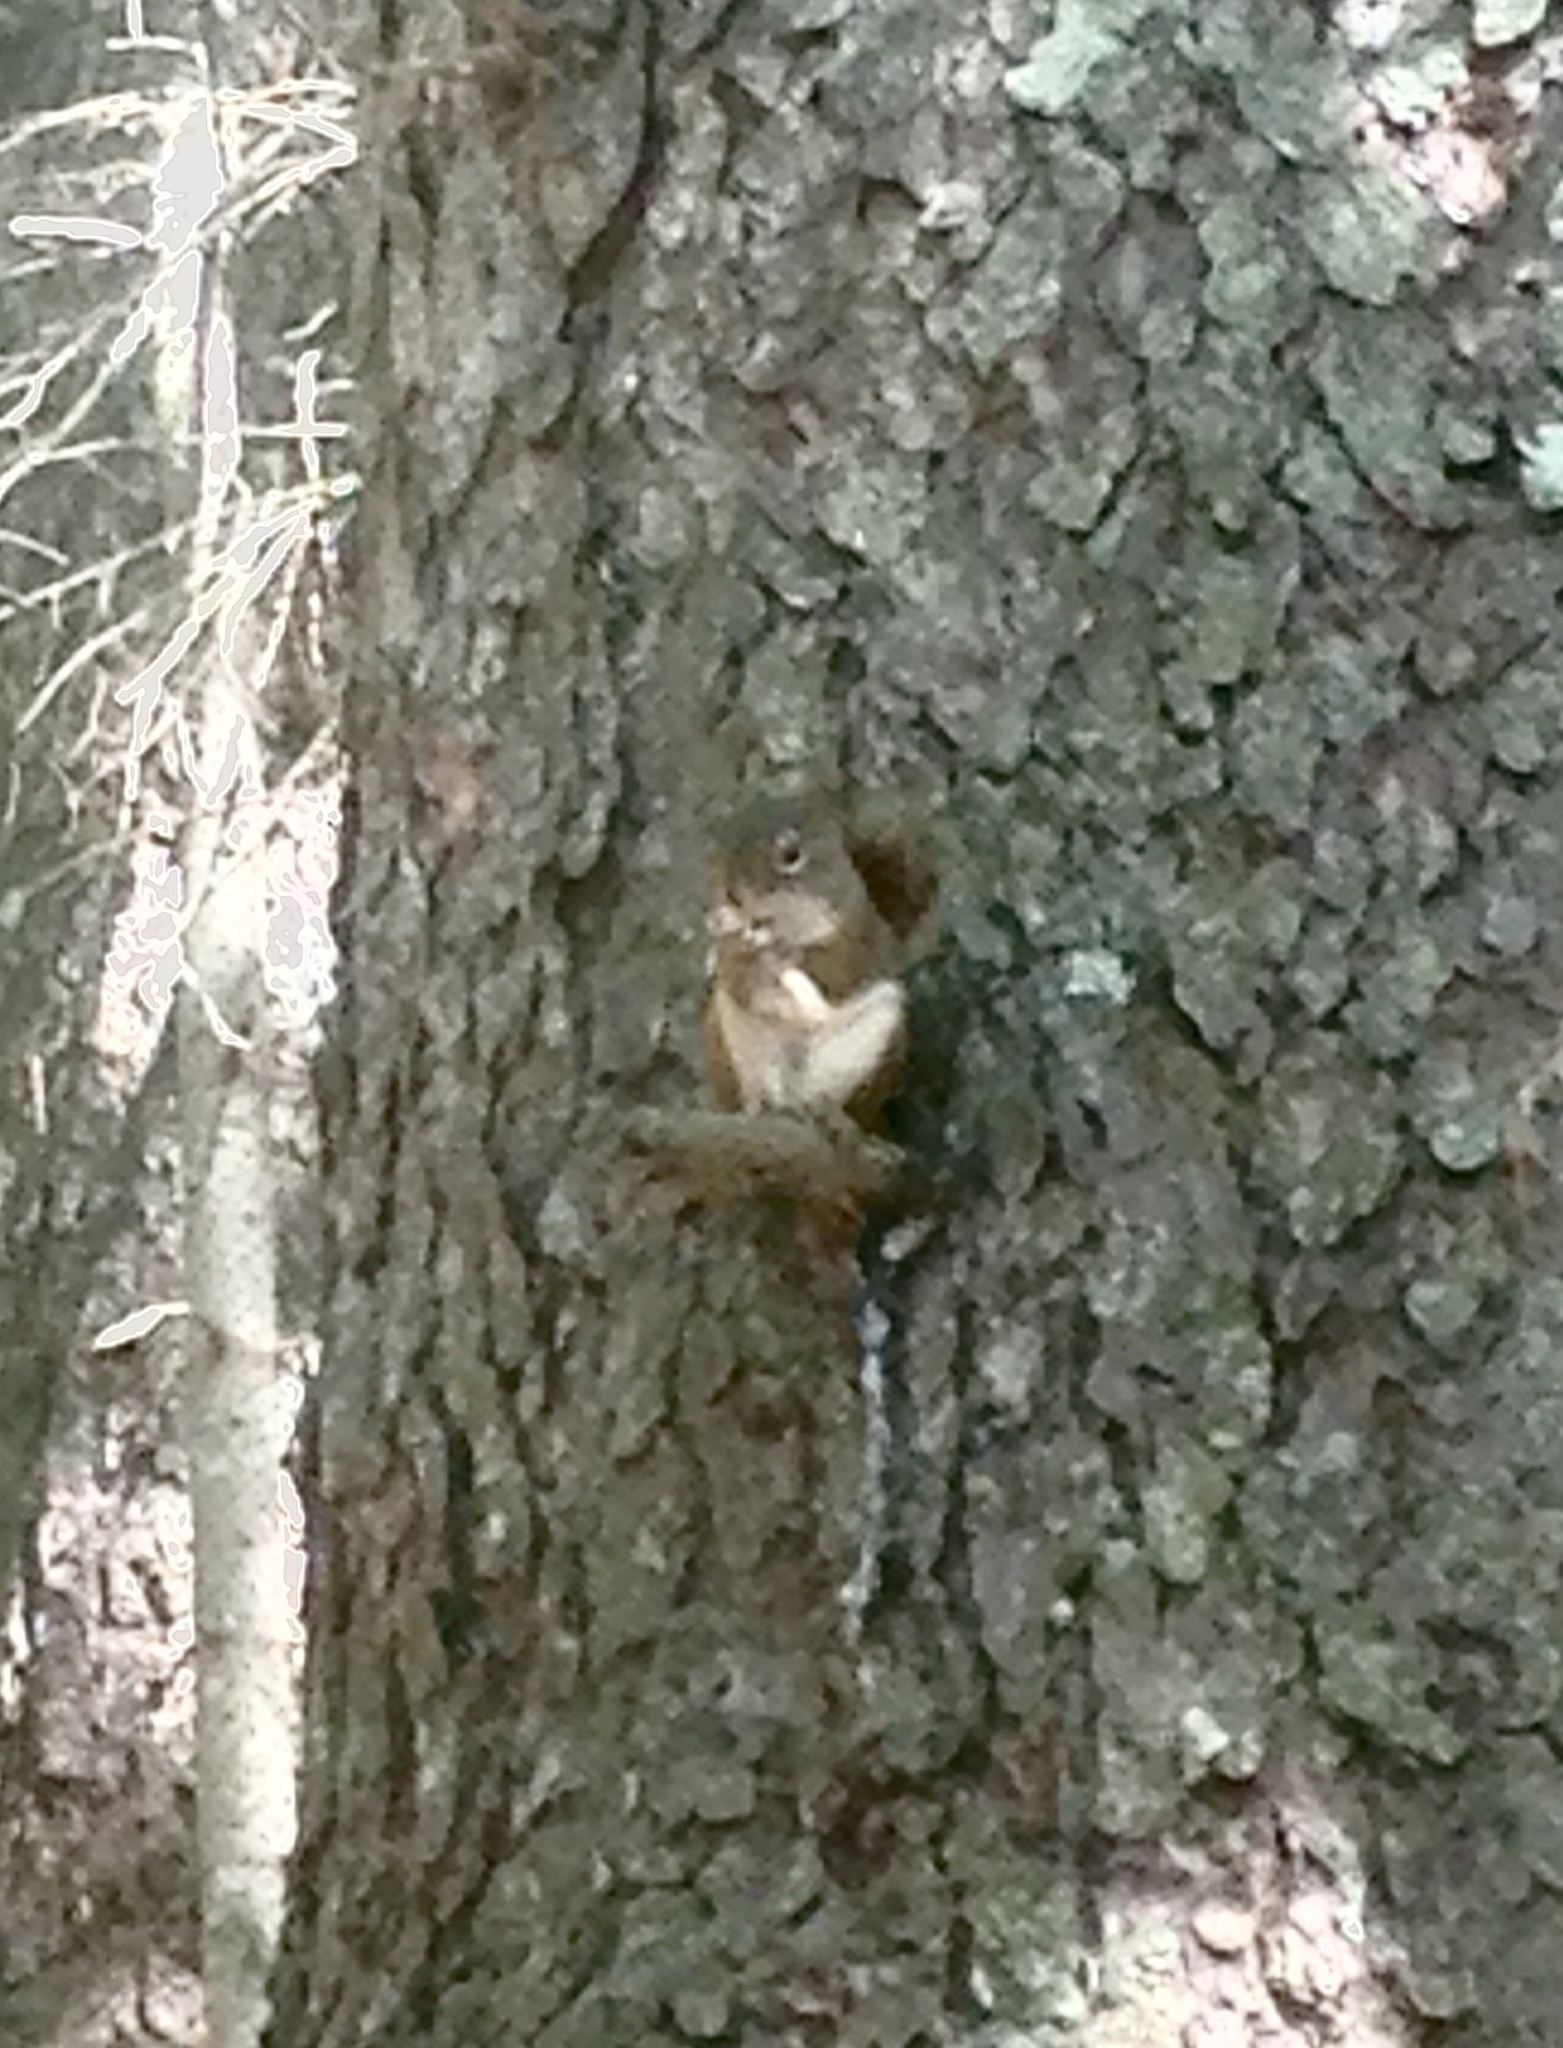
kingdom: Animalia
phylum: Chordata
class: Mammalia
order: Rodentia
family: Sciuridae
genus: Tamiasciurus
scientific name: Tamiasciurus hudsonicus
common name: Red squirrel
